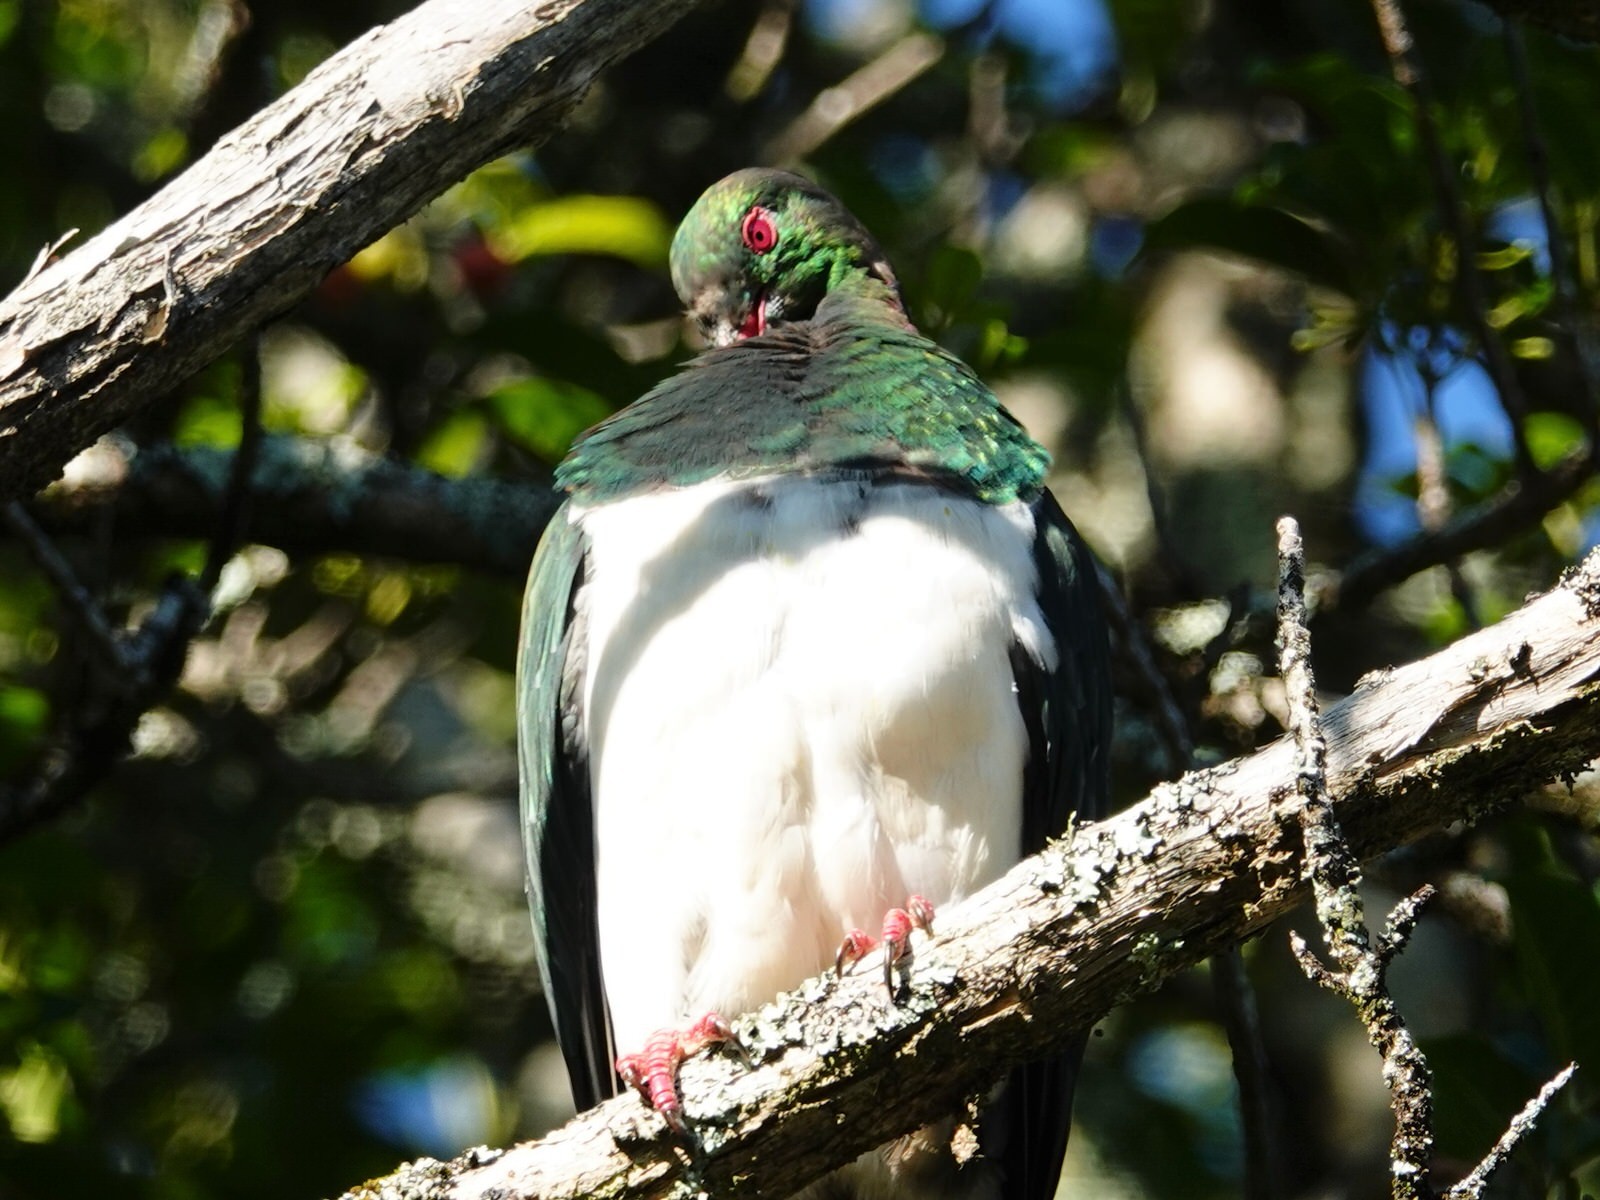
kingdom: Animalia
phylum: Chordata
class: Aves
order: Columbiformes
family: Columbidae
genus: Hemiphaga
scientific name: Hemiphaga novaeseelandiae
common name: New zealand pigeon
